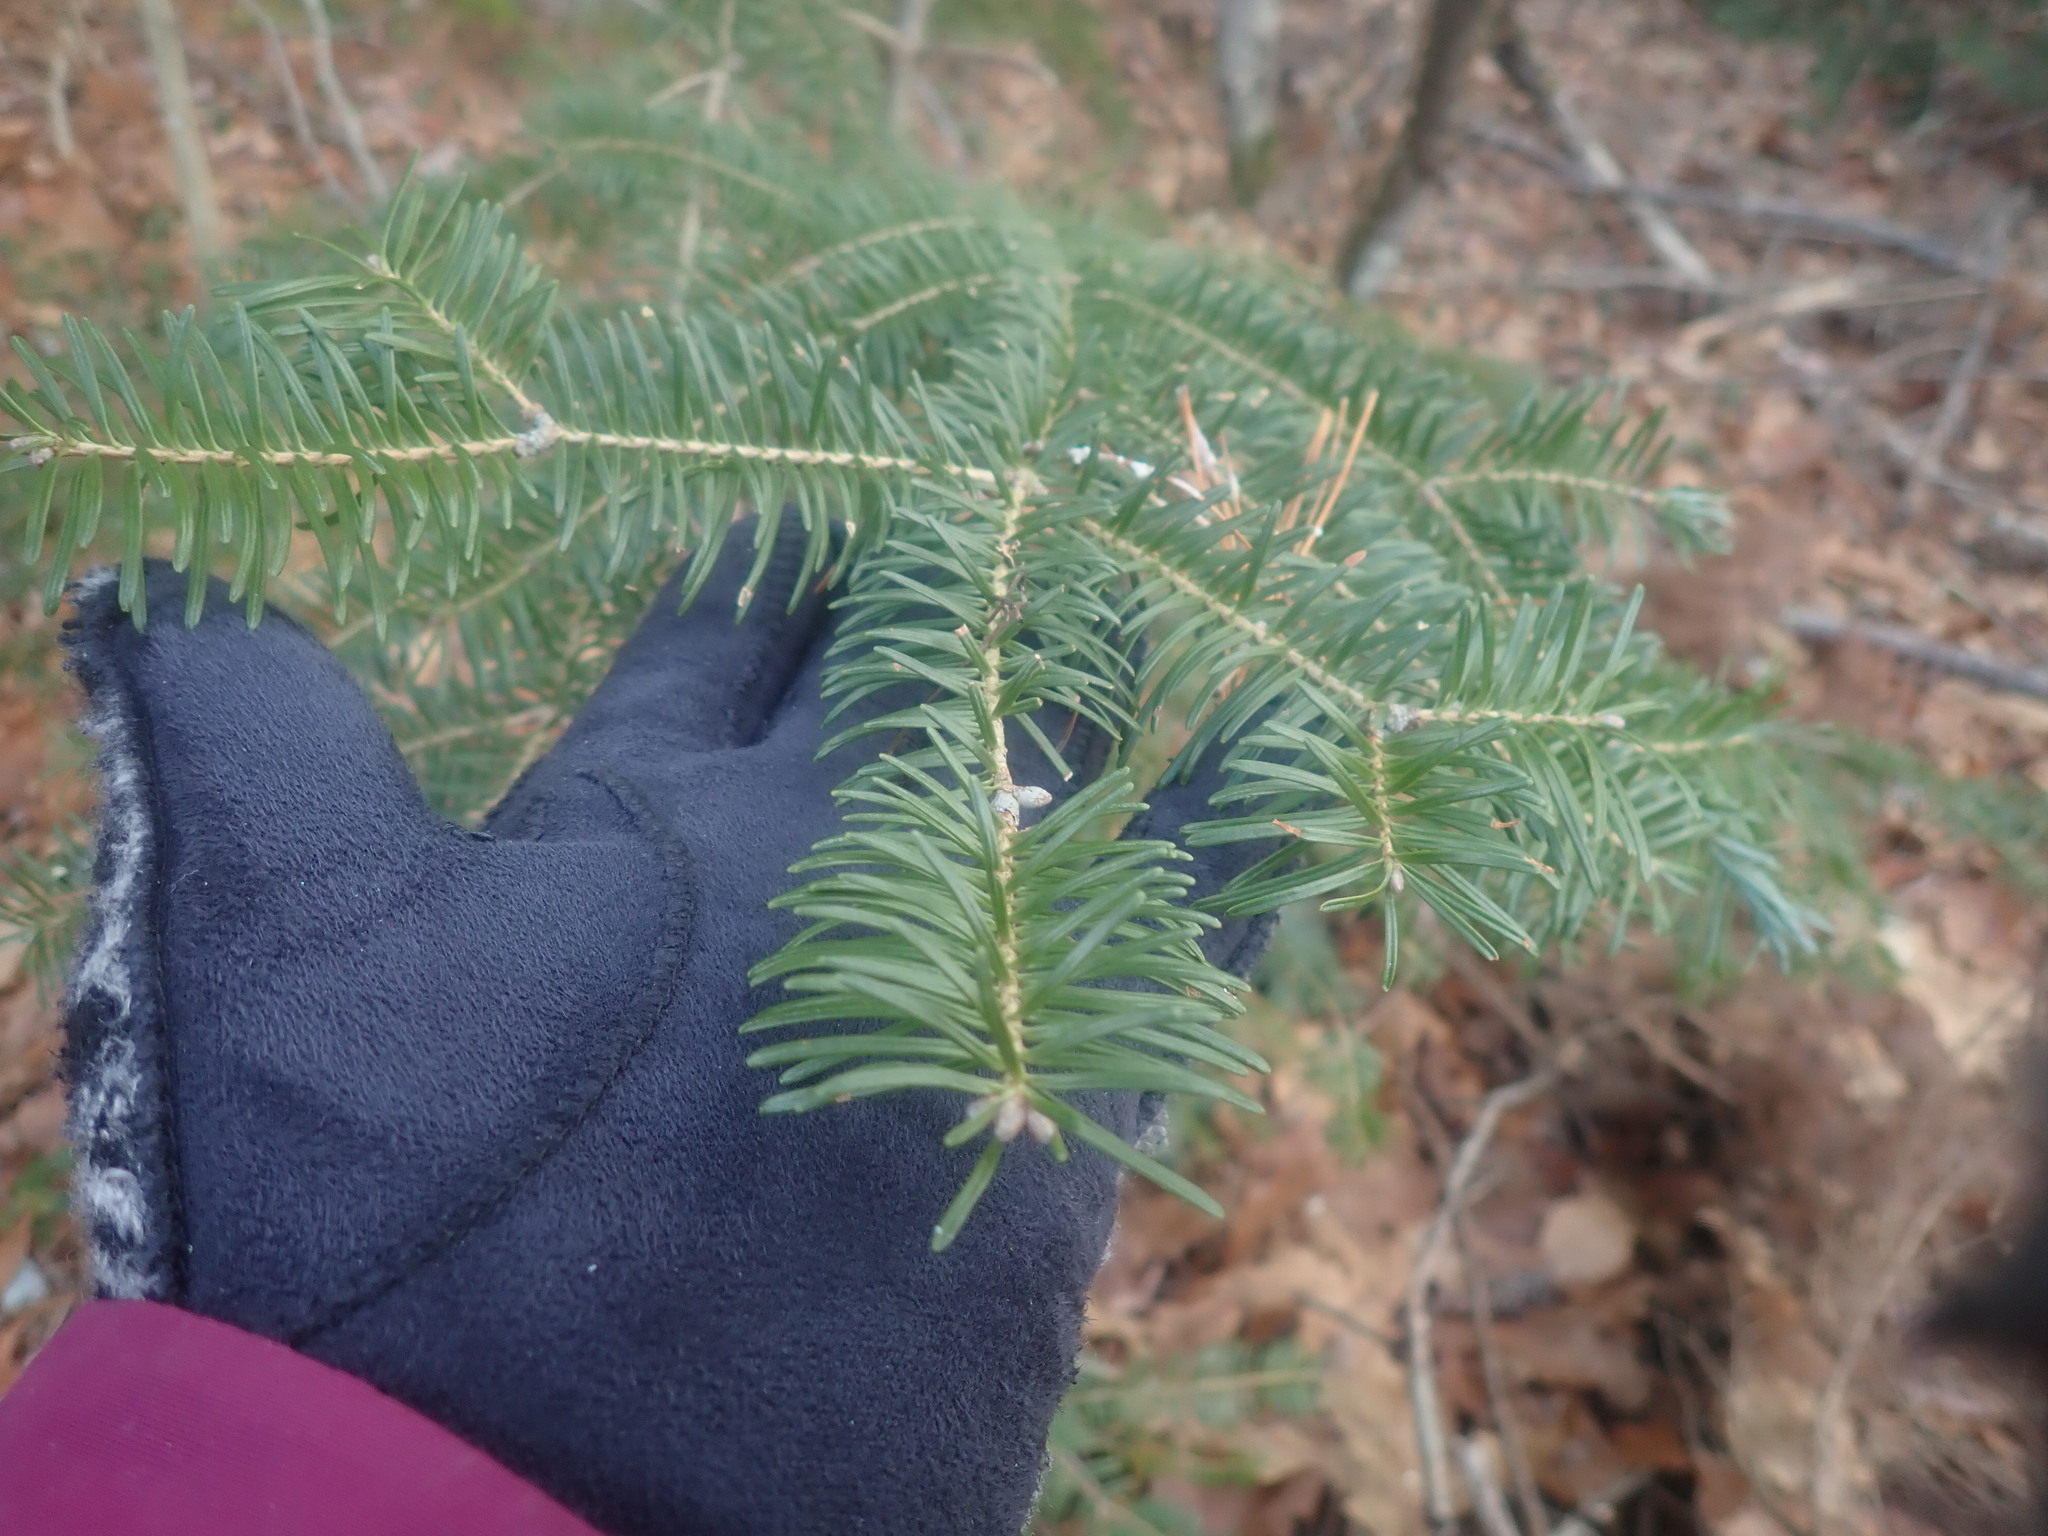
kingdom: Plantae
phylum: Tracheophyta
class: Pinopsida
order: Pinales
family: Pinaceae
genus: Abies
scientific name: Abies balsamea
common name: Balsam fir
